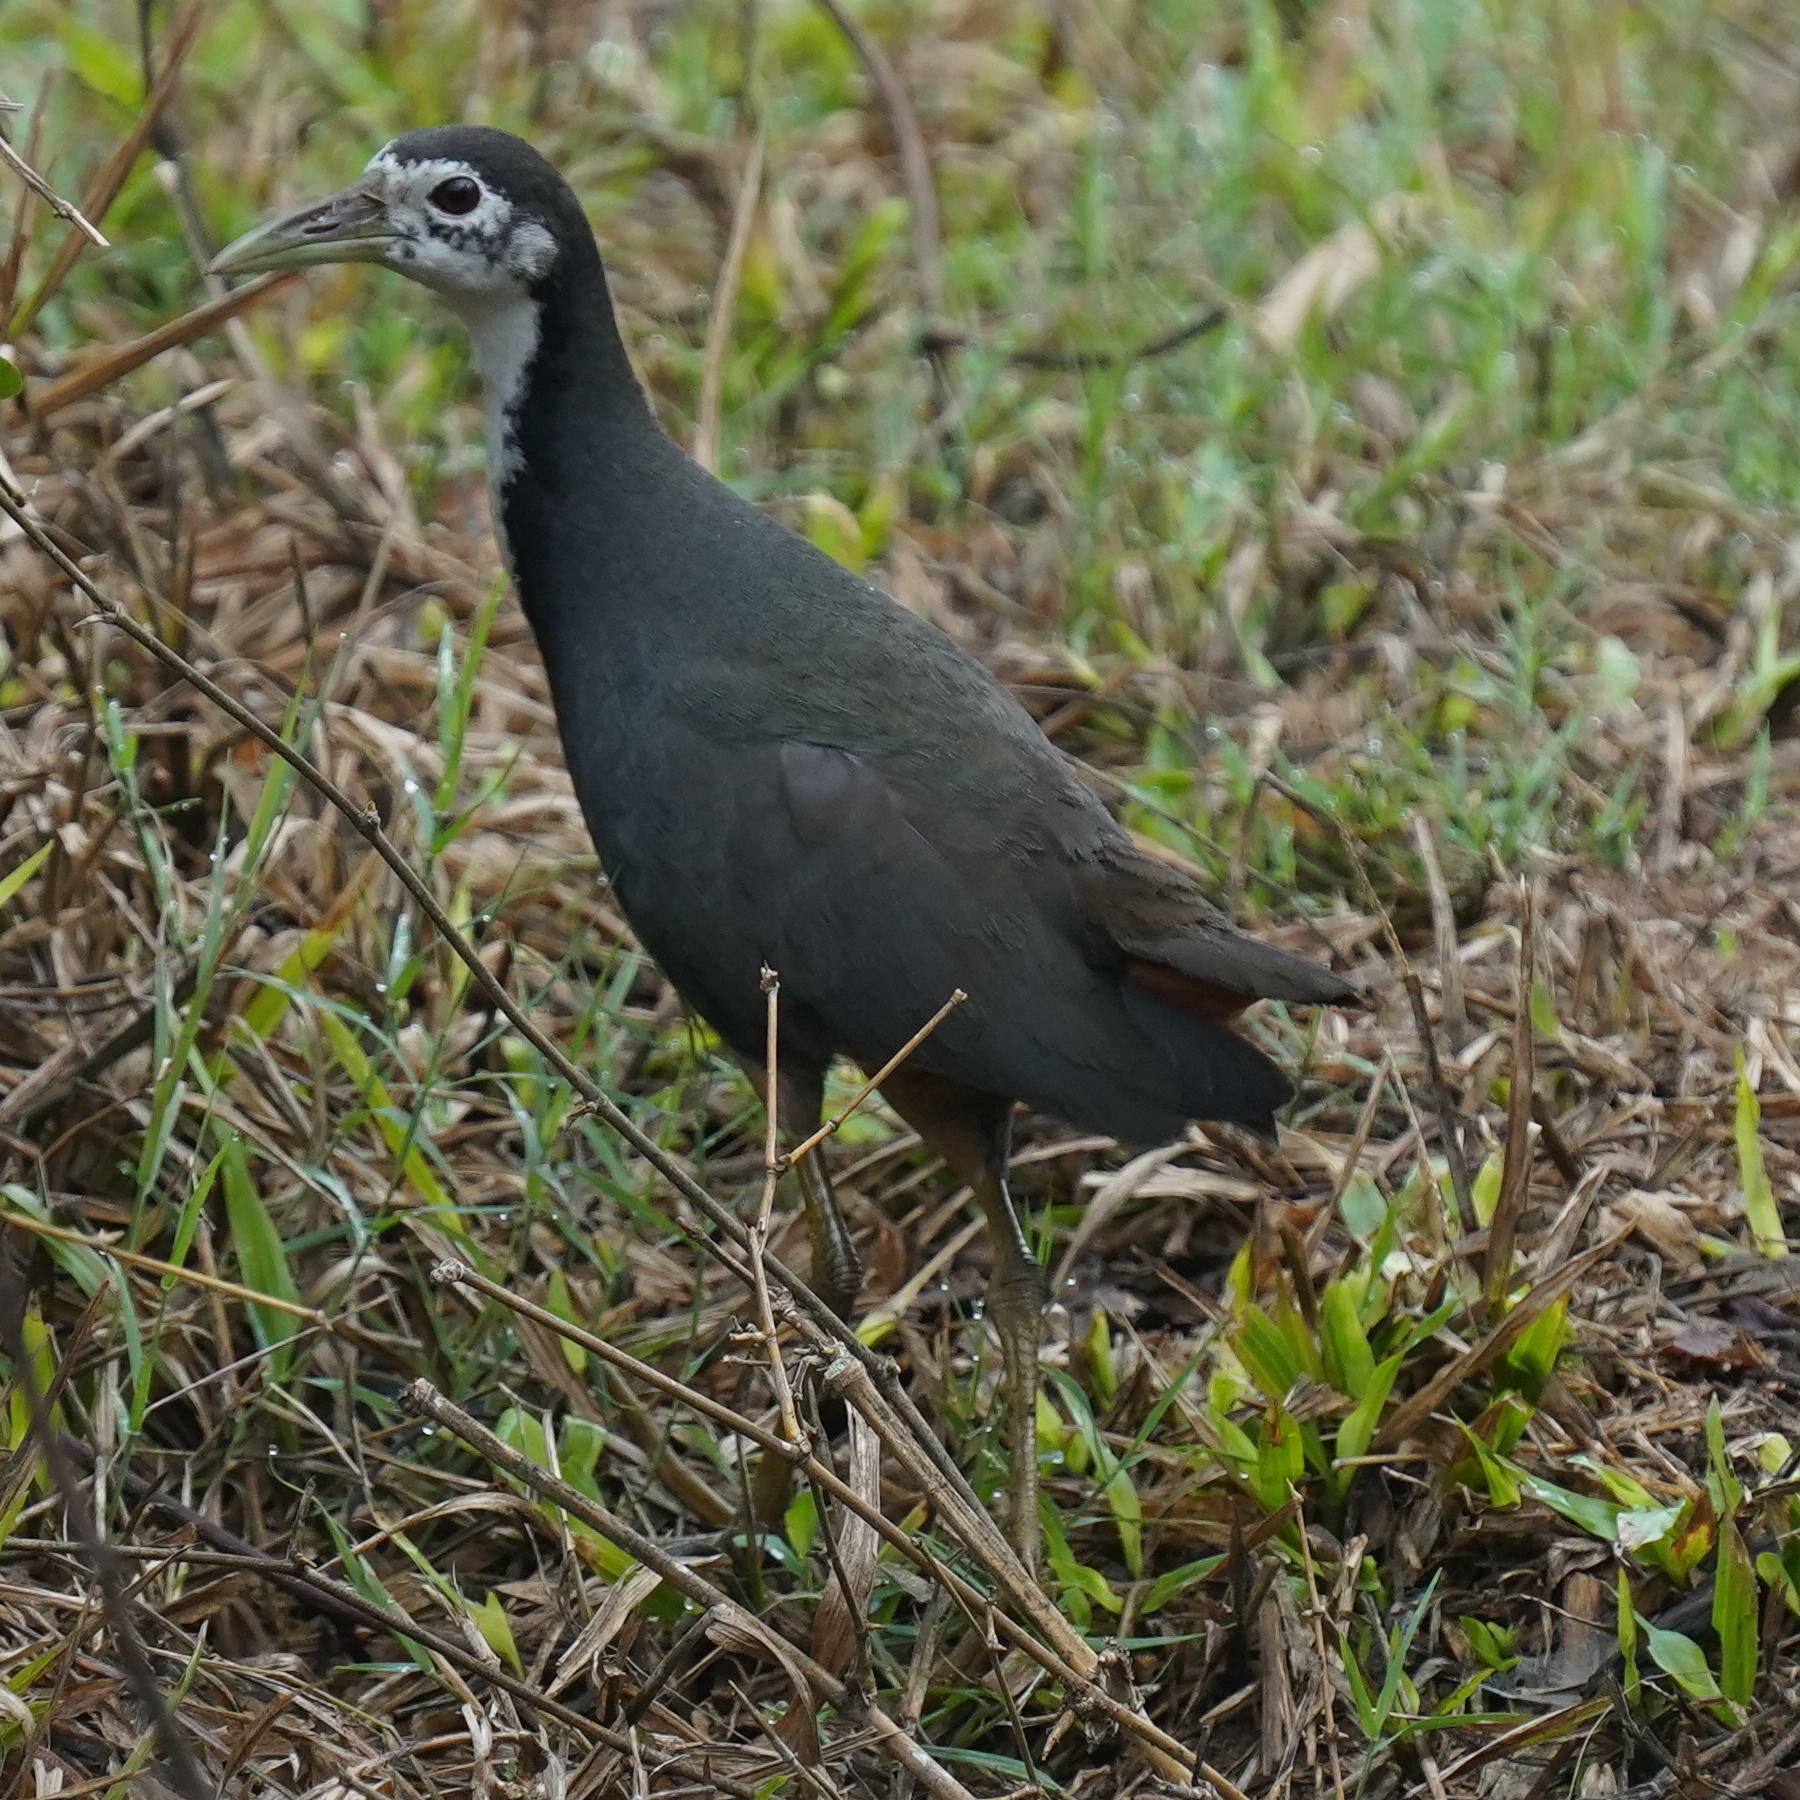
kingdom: Animalia
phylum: Chordata
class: Aves
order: Gruiformes
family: Rallidae
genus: Amaurornis
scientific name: Amaurornis phoenicurus
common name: White-breasted waterhen
